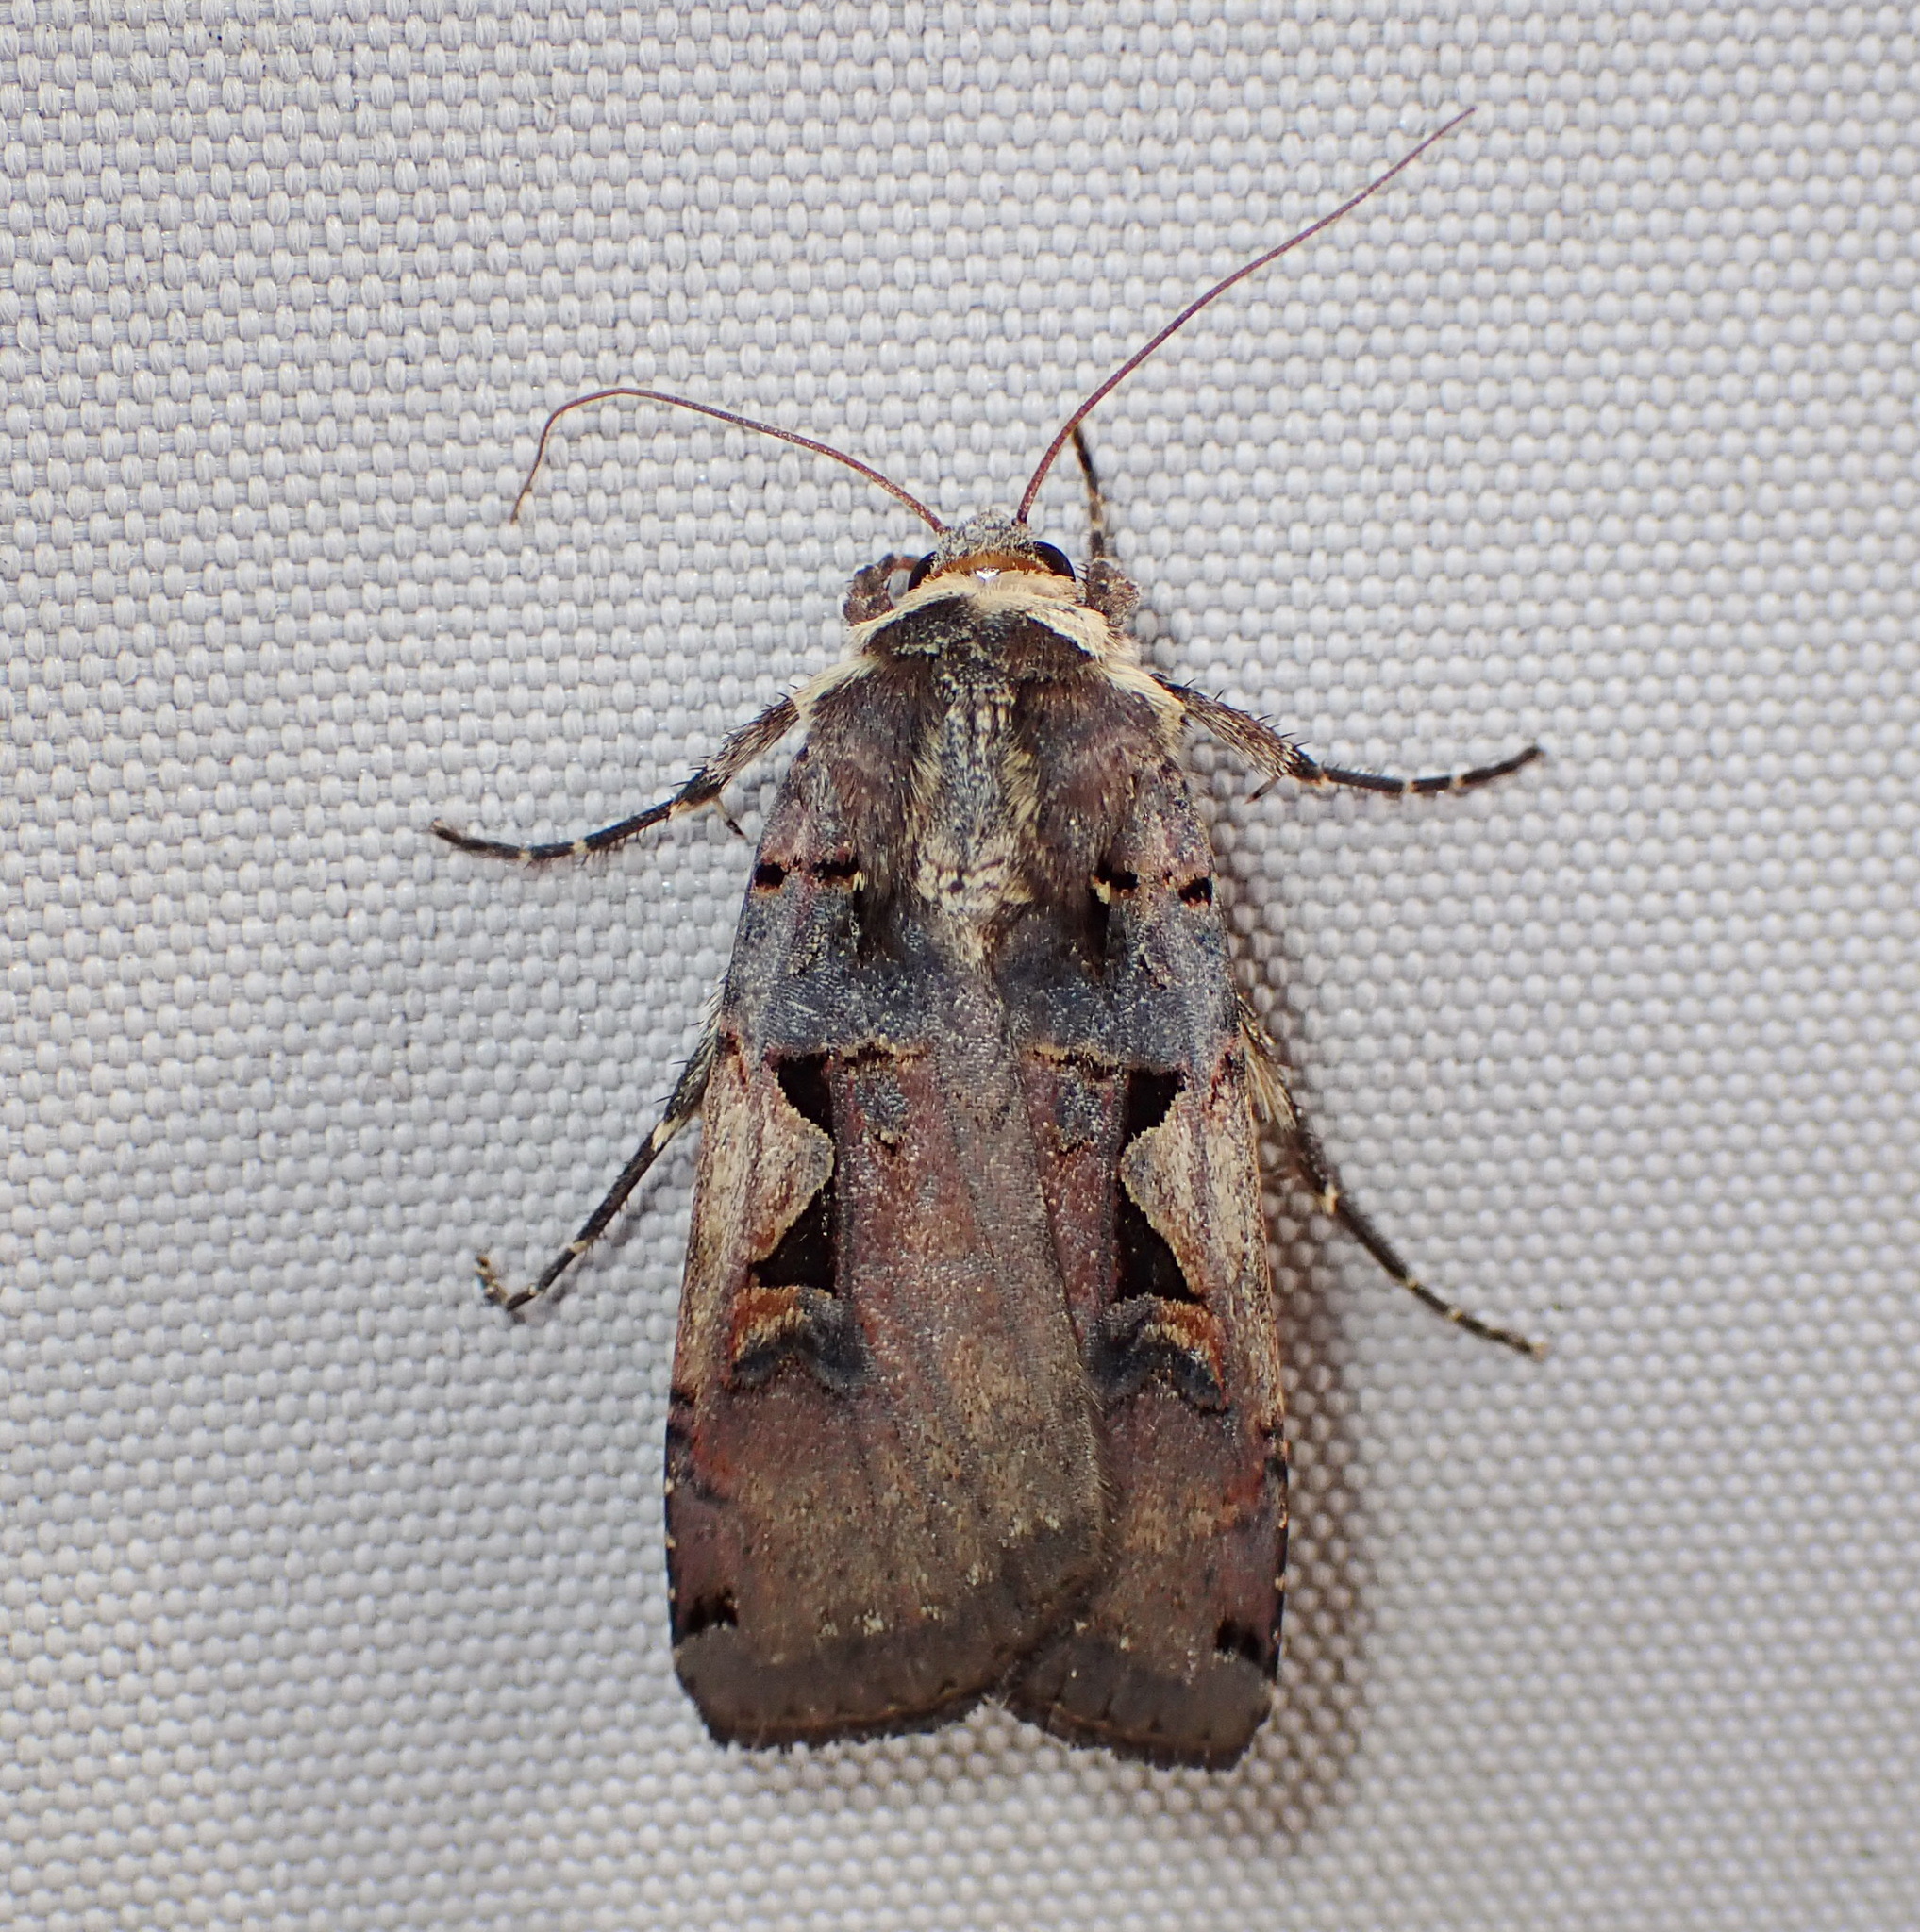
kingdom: Animalia
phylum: Arthropoda
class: Insecta
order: Lepidoptera
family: Noctuidae
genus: Xestia
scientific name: Xestia
